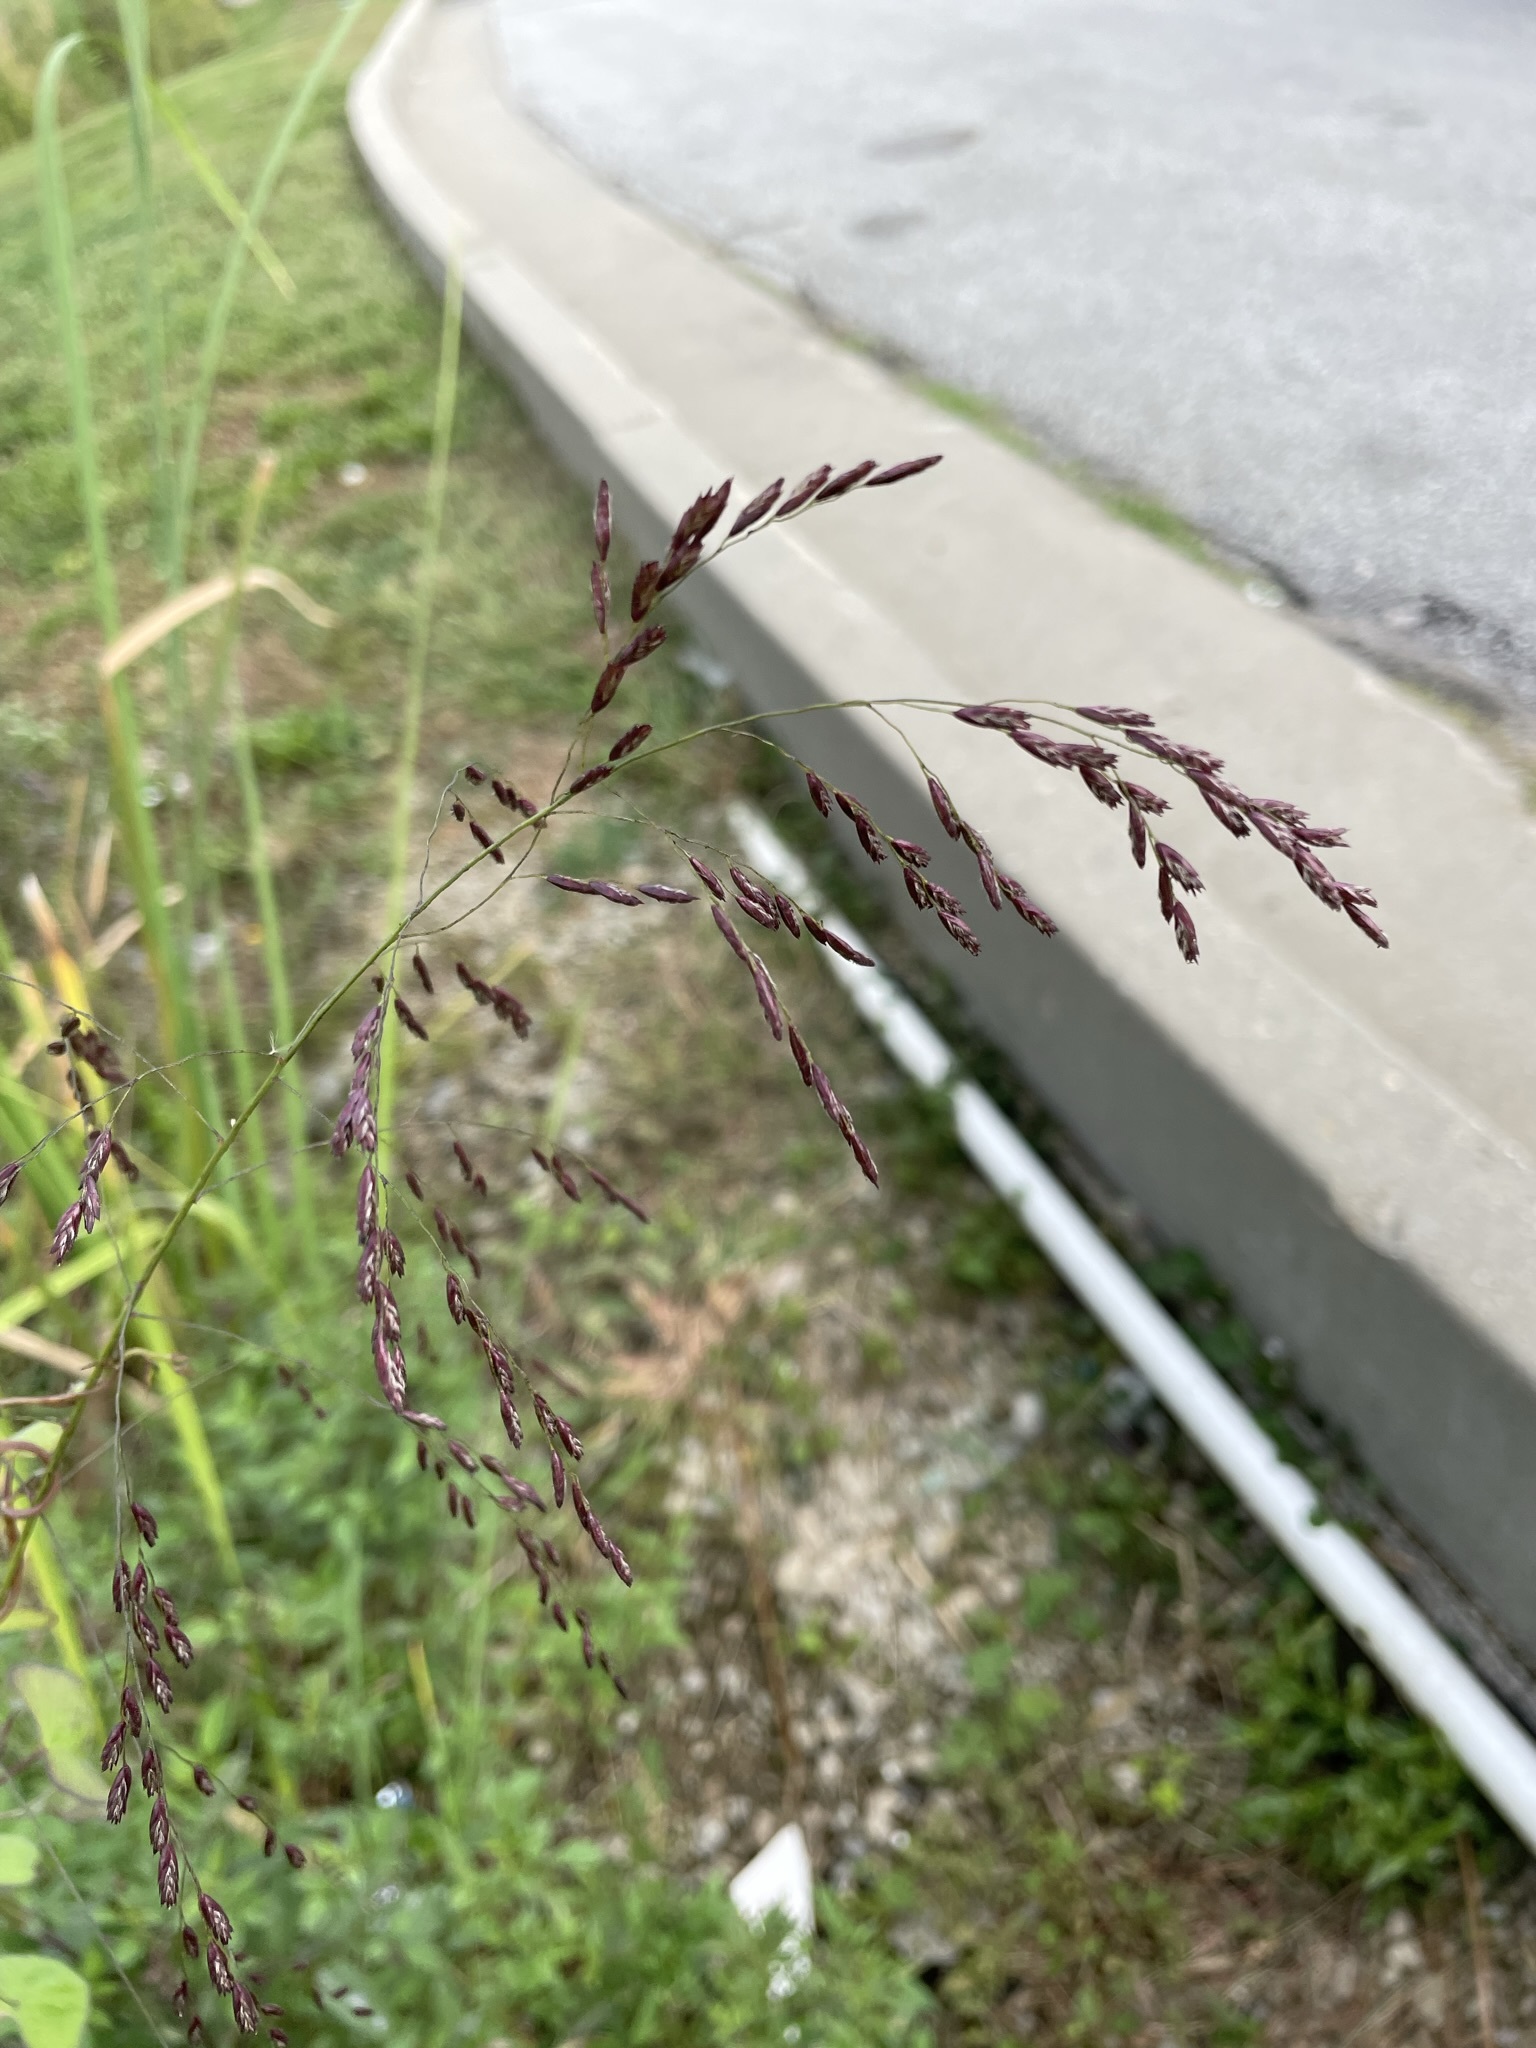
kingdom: Plantae
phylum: Tracheophyta
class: Liliopsida
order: Poales
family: Poaceae
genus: Tridens
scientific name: Tridens flavus
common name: Purpletop
